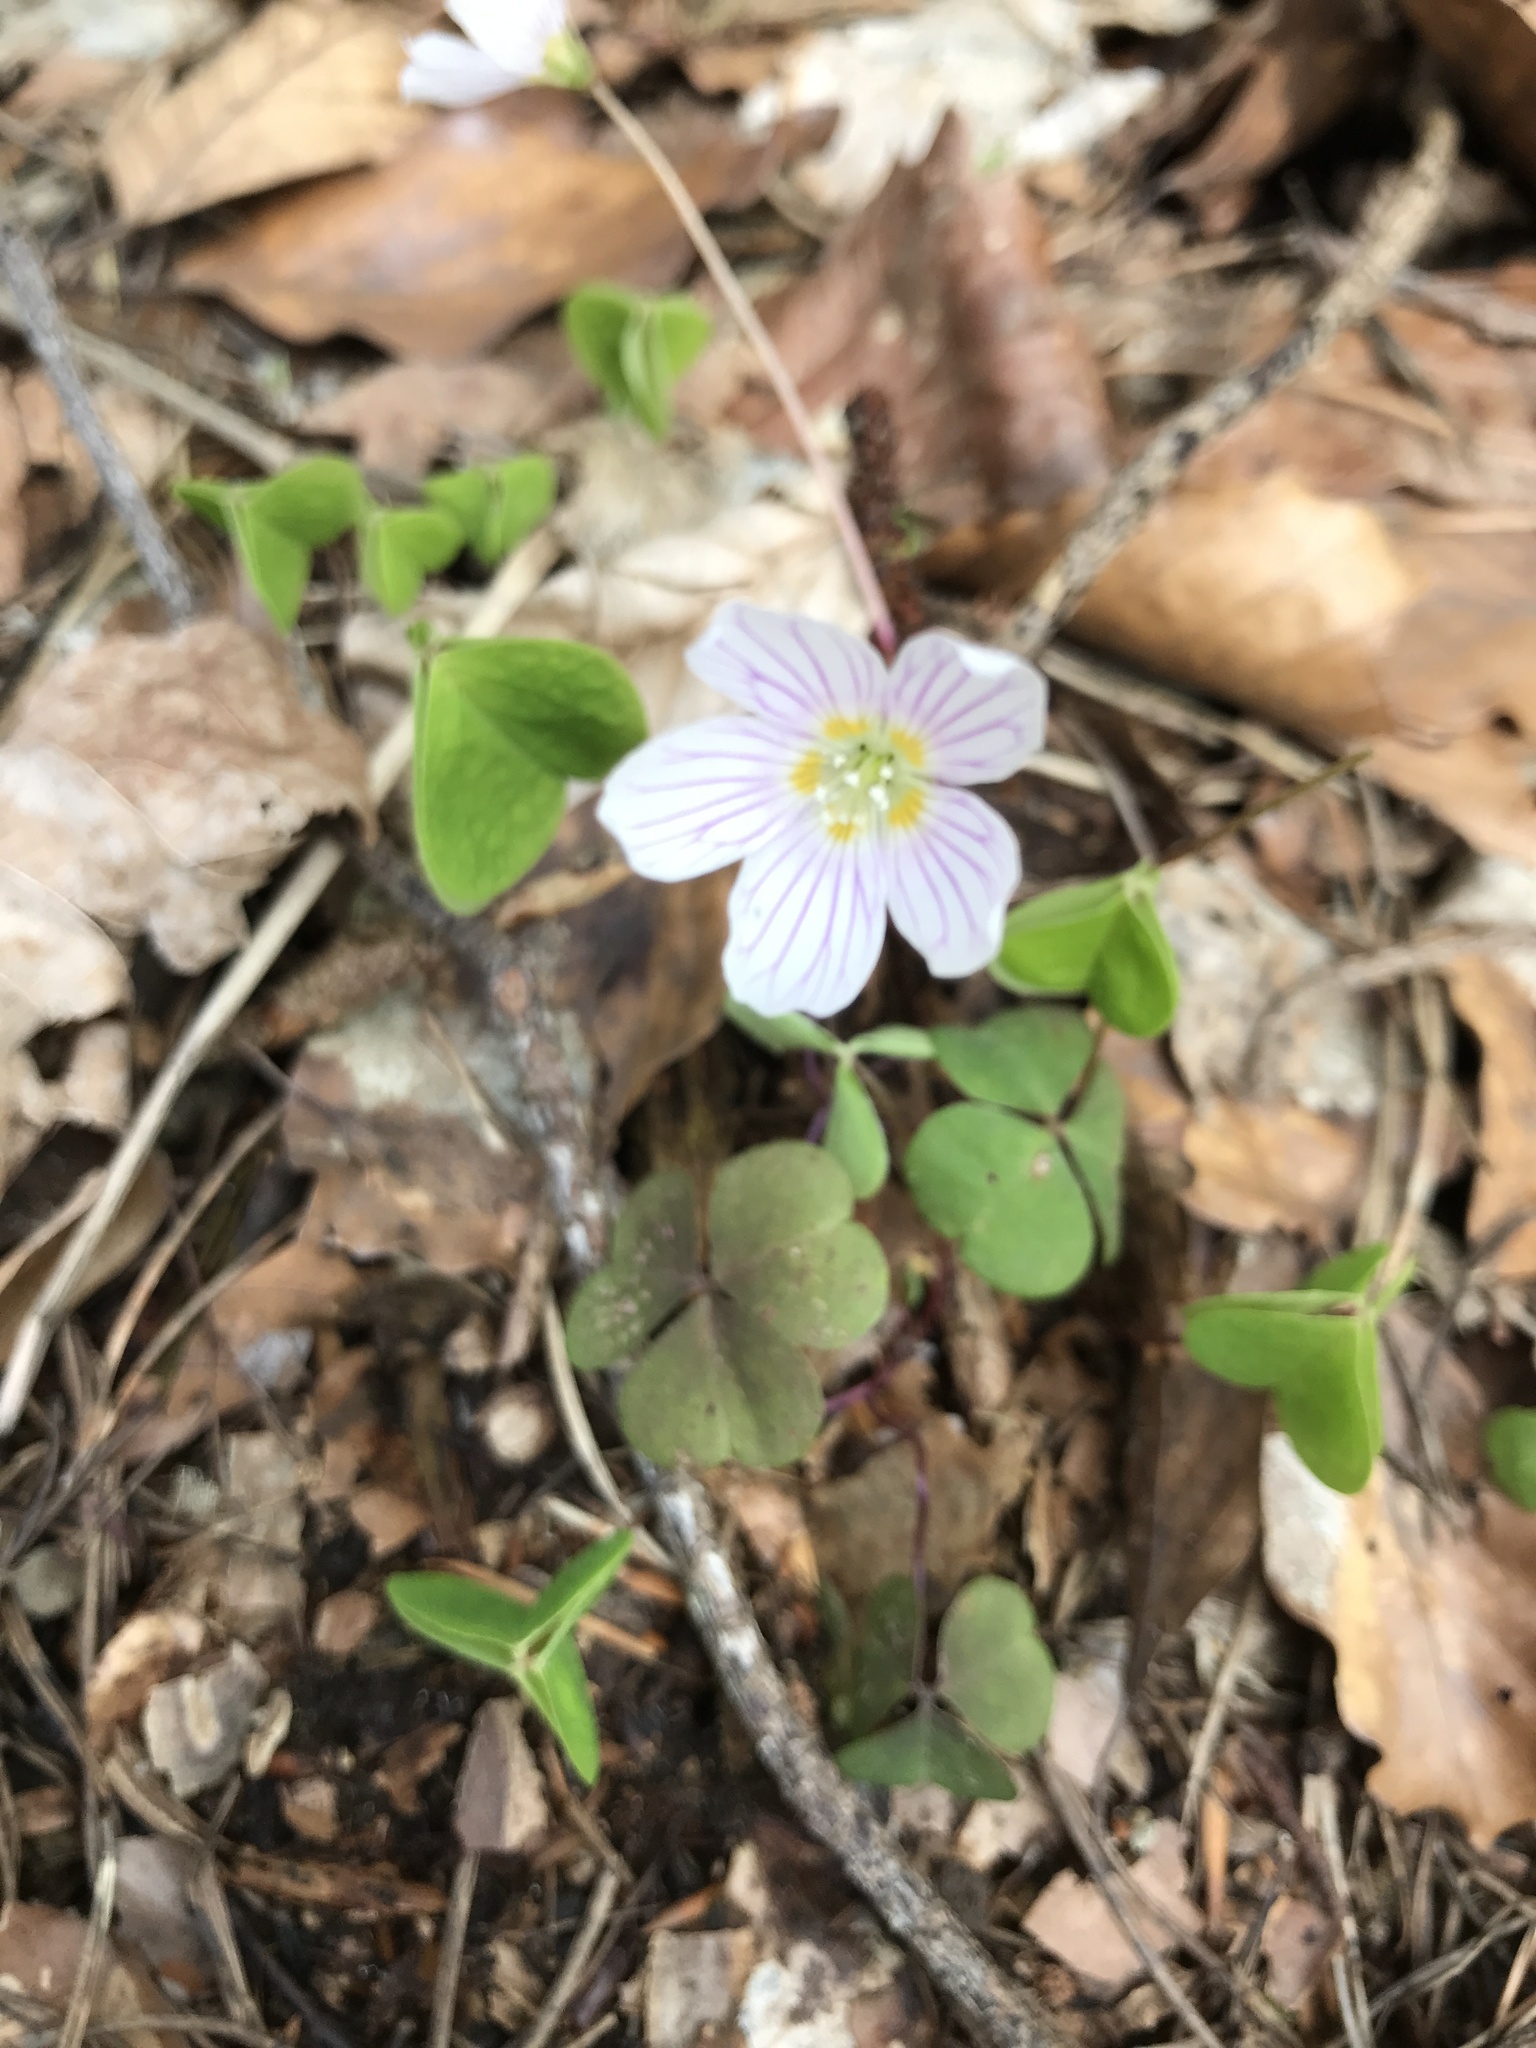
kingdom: Plantae
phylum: Tracheophyta
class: Magnoliopsida
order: Oxalidales
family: Oxalidaceae
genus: Oxalis
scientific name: Oxalis acetosella
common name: Wood-sorrel
